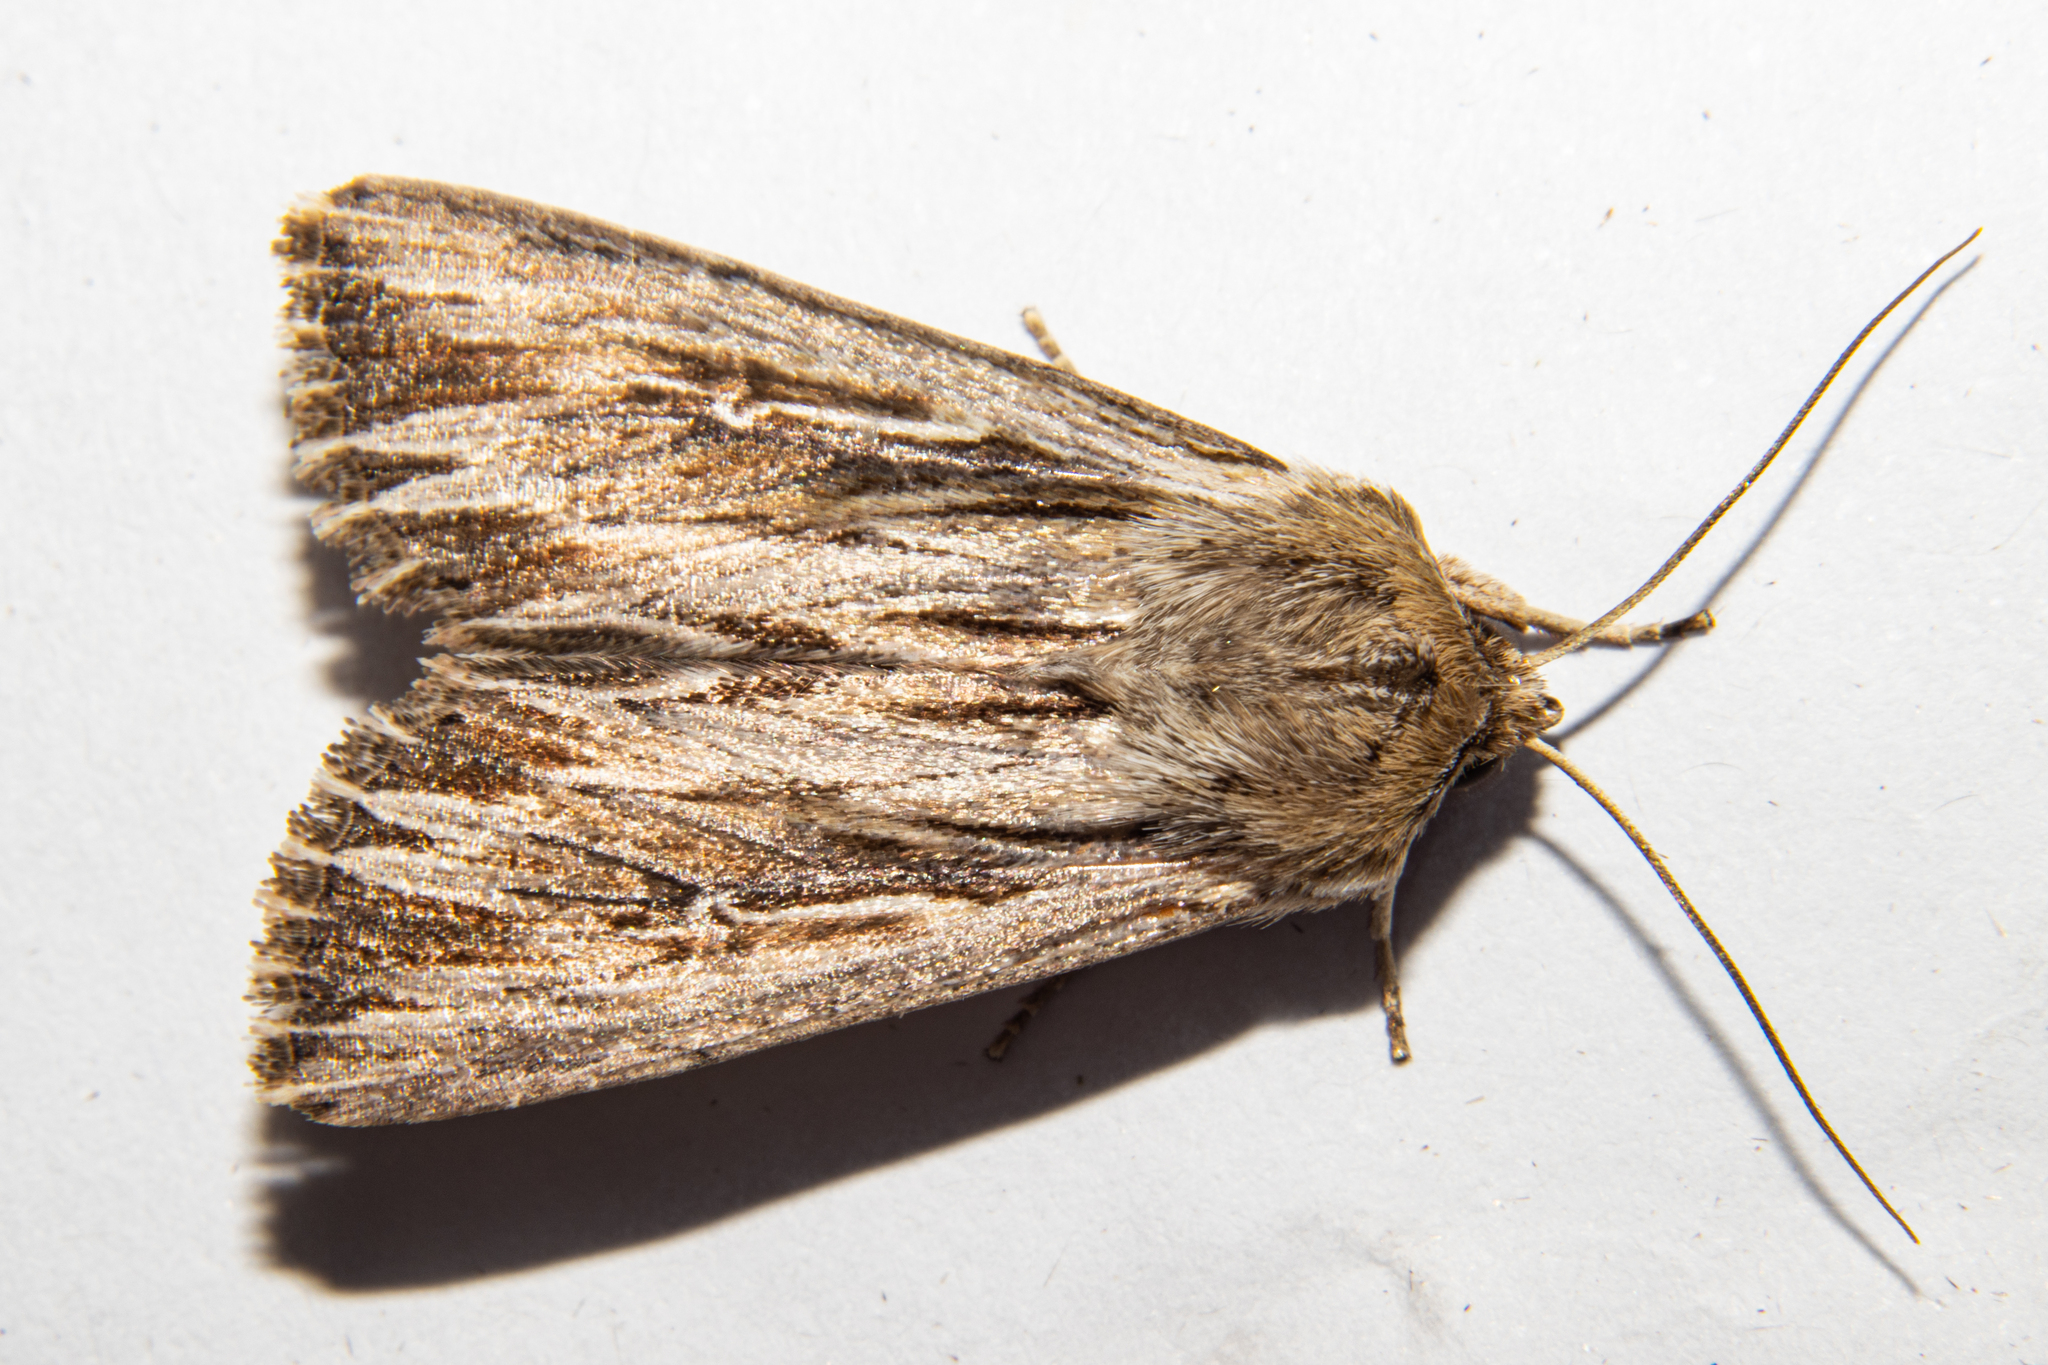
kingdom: Animalia
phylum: Arthropoda
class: Insecta
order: Lepidoptera
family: Noctuidae
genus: Persectania
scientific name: Persectania aversa
